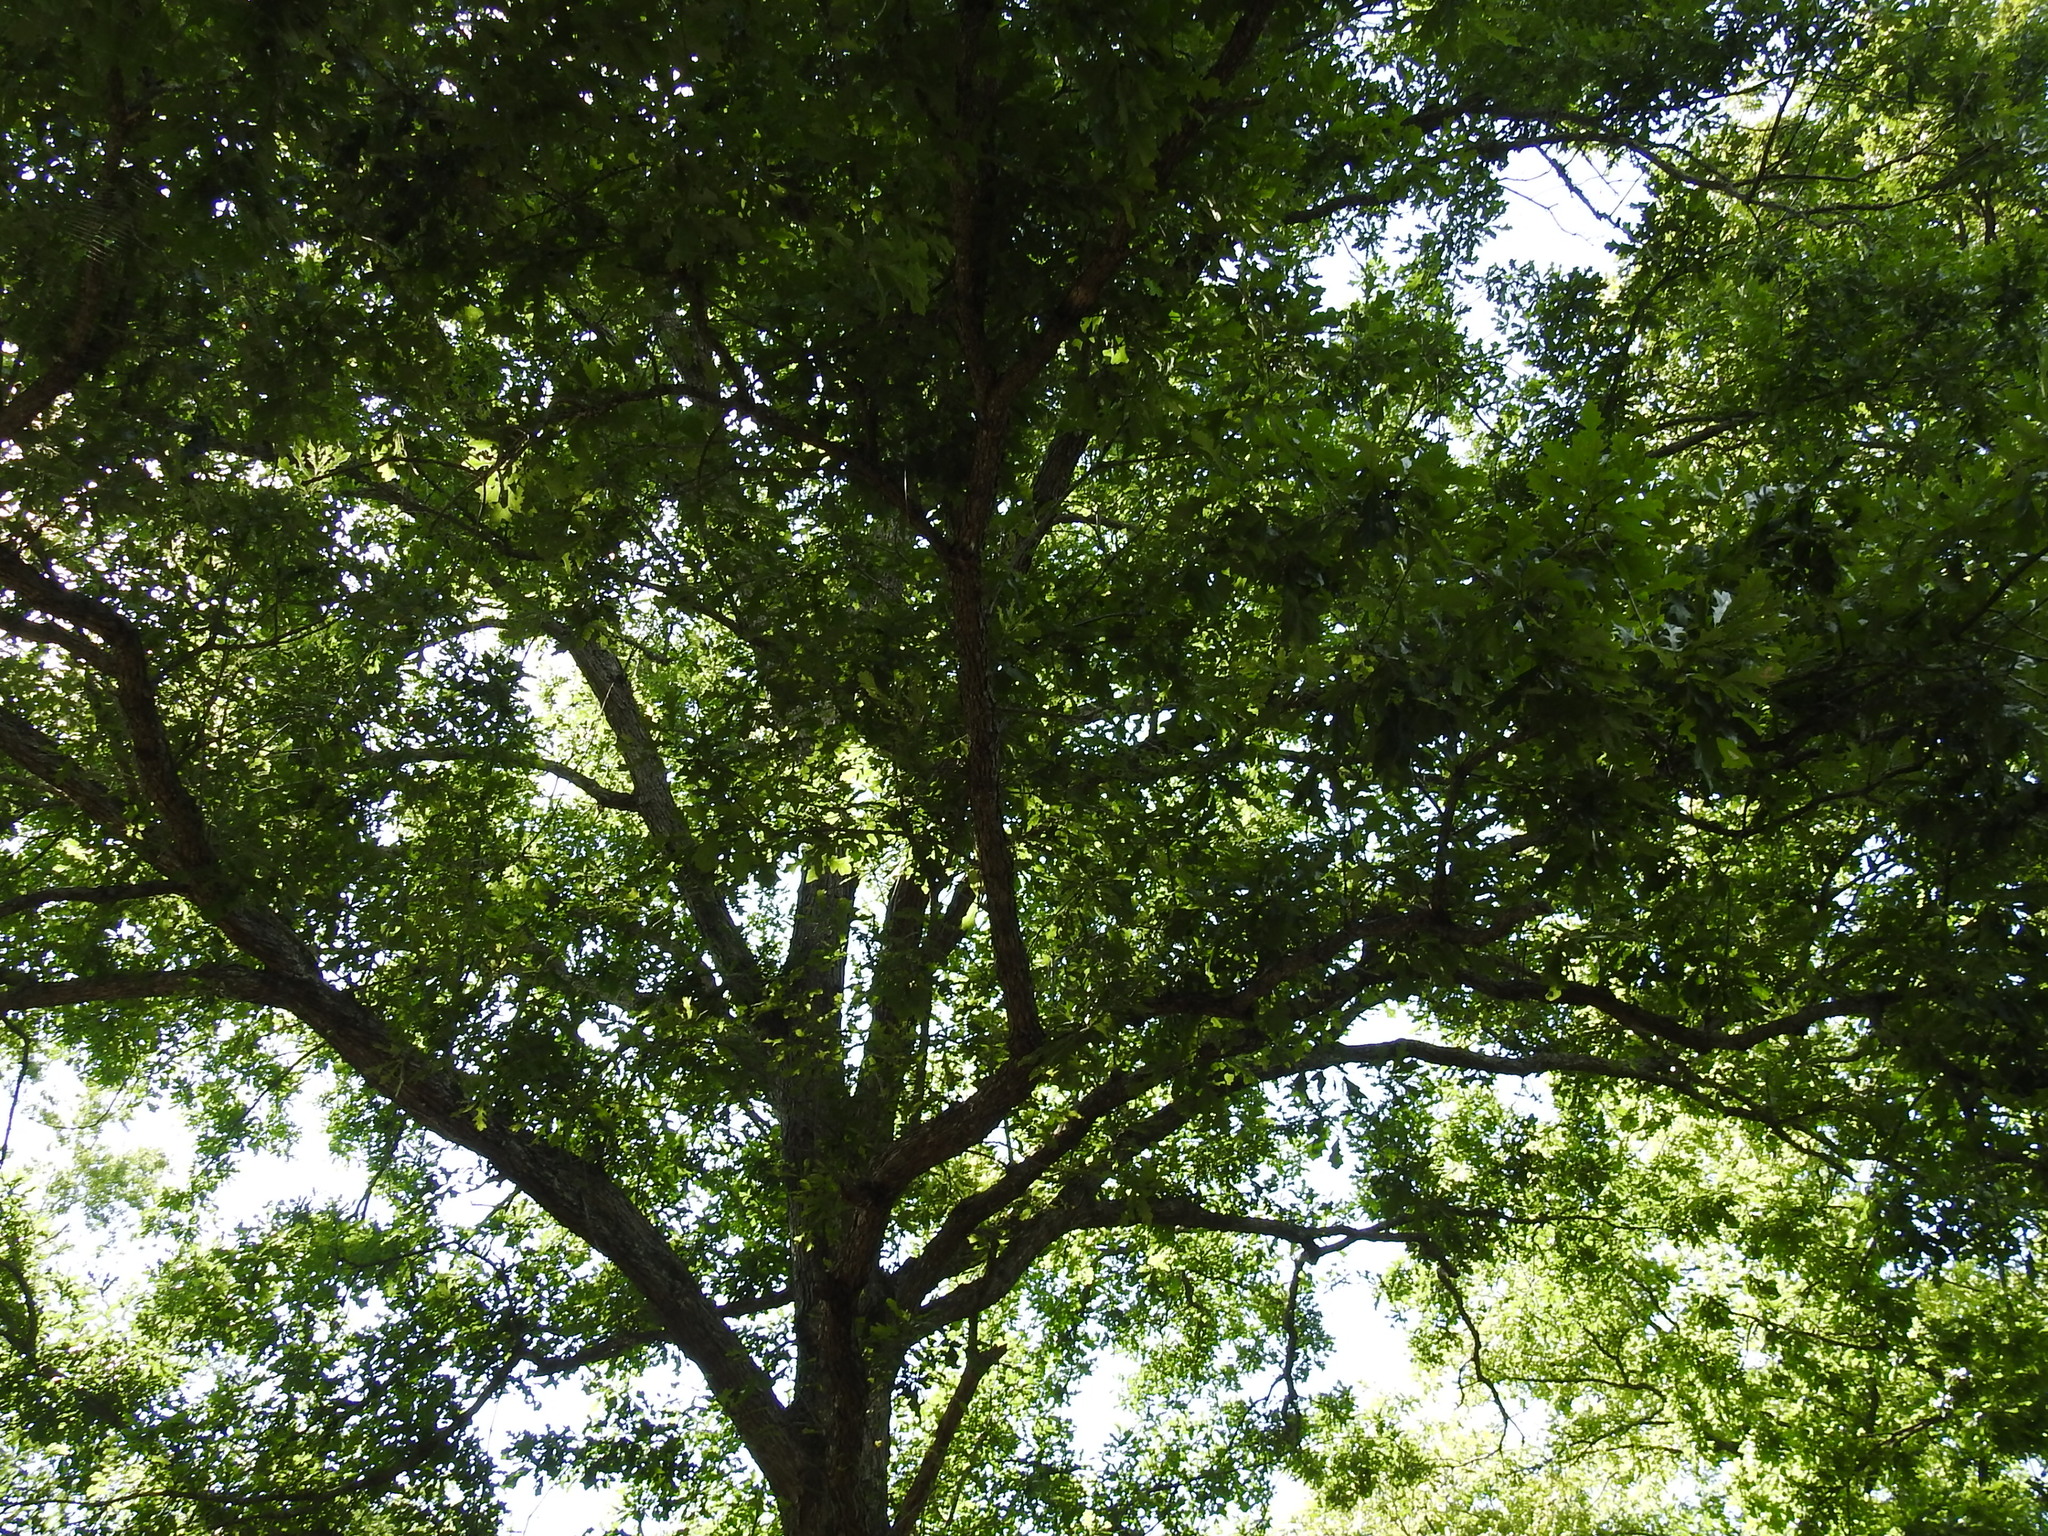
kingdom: Plantae
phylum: Tracheophyta
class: Magnoliopsida
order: Fagales
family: Fagaceae
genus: Quercus
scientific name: Quercus lyrata
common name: Overcup oak
